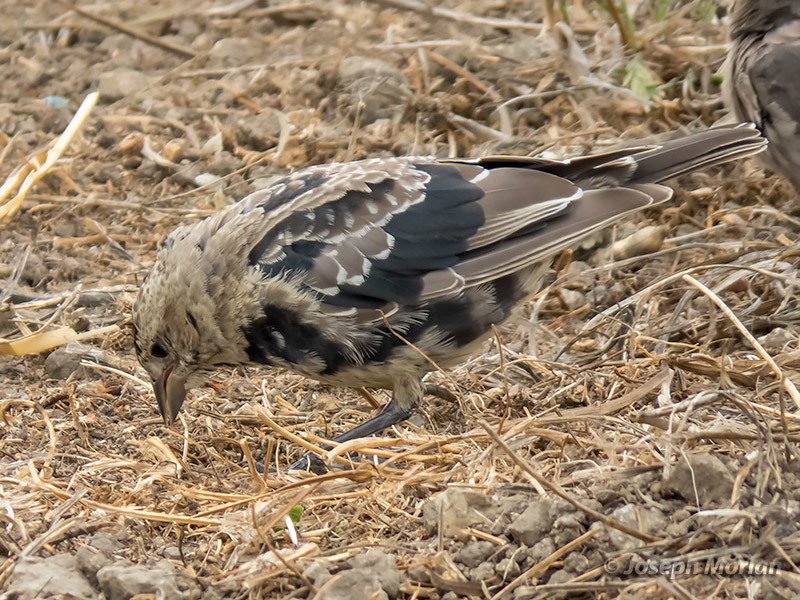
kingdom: Animalia
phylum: Chordata
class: Aves
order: Passeriformes
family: Icteridae
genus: Molothrus
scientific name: Molothrus ater
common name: Brown-headed cowbird
